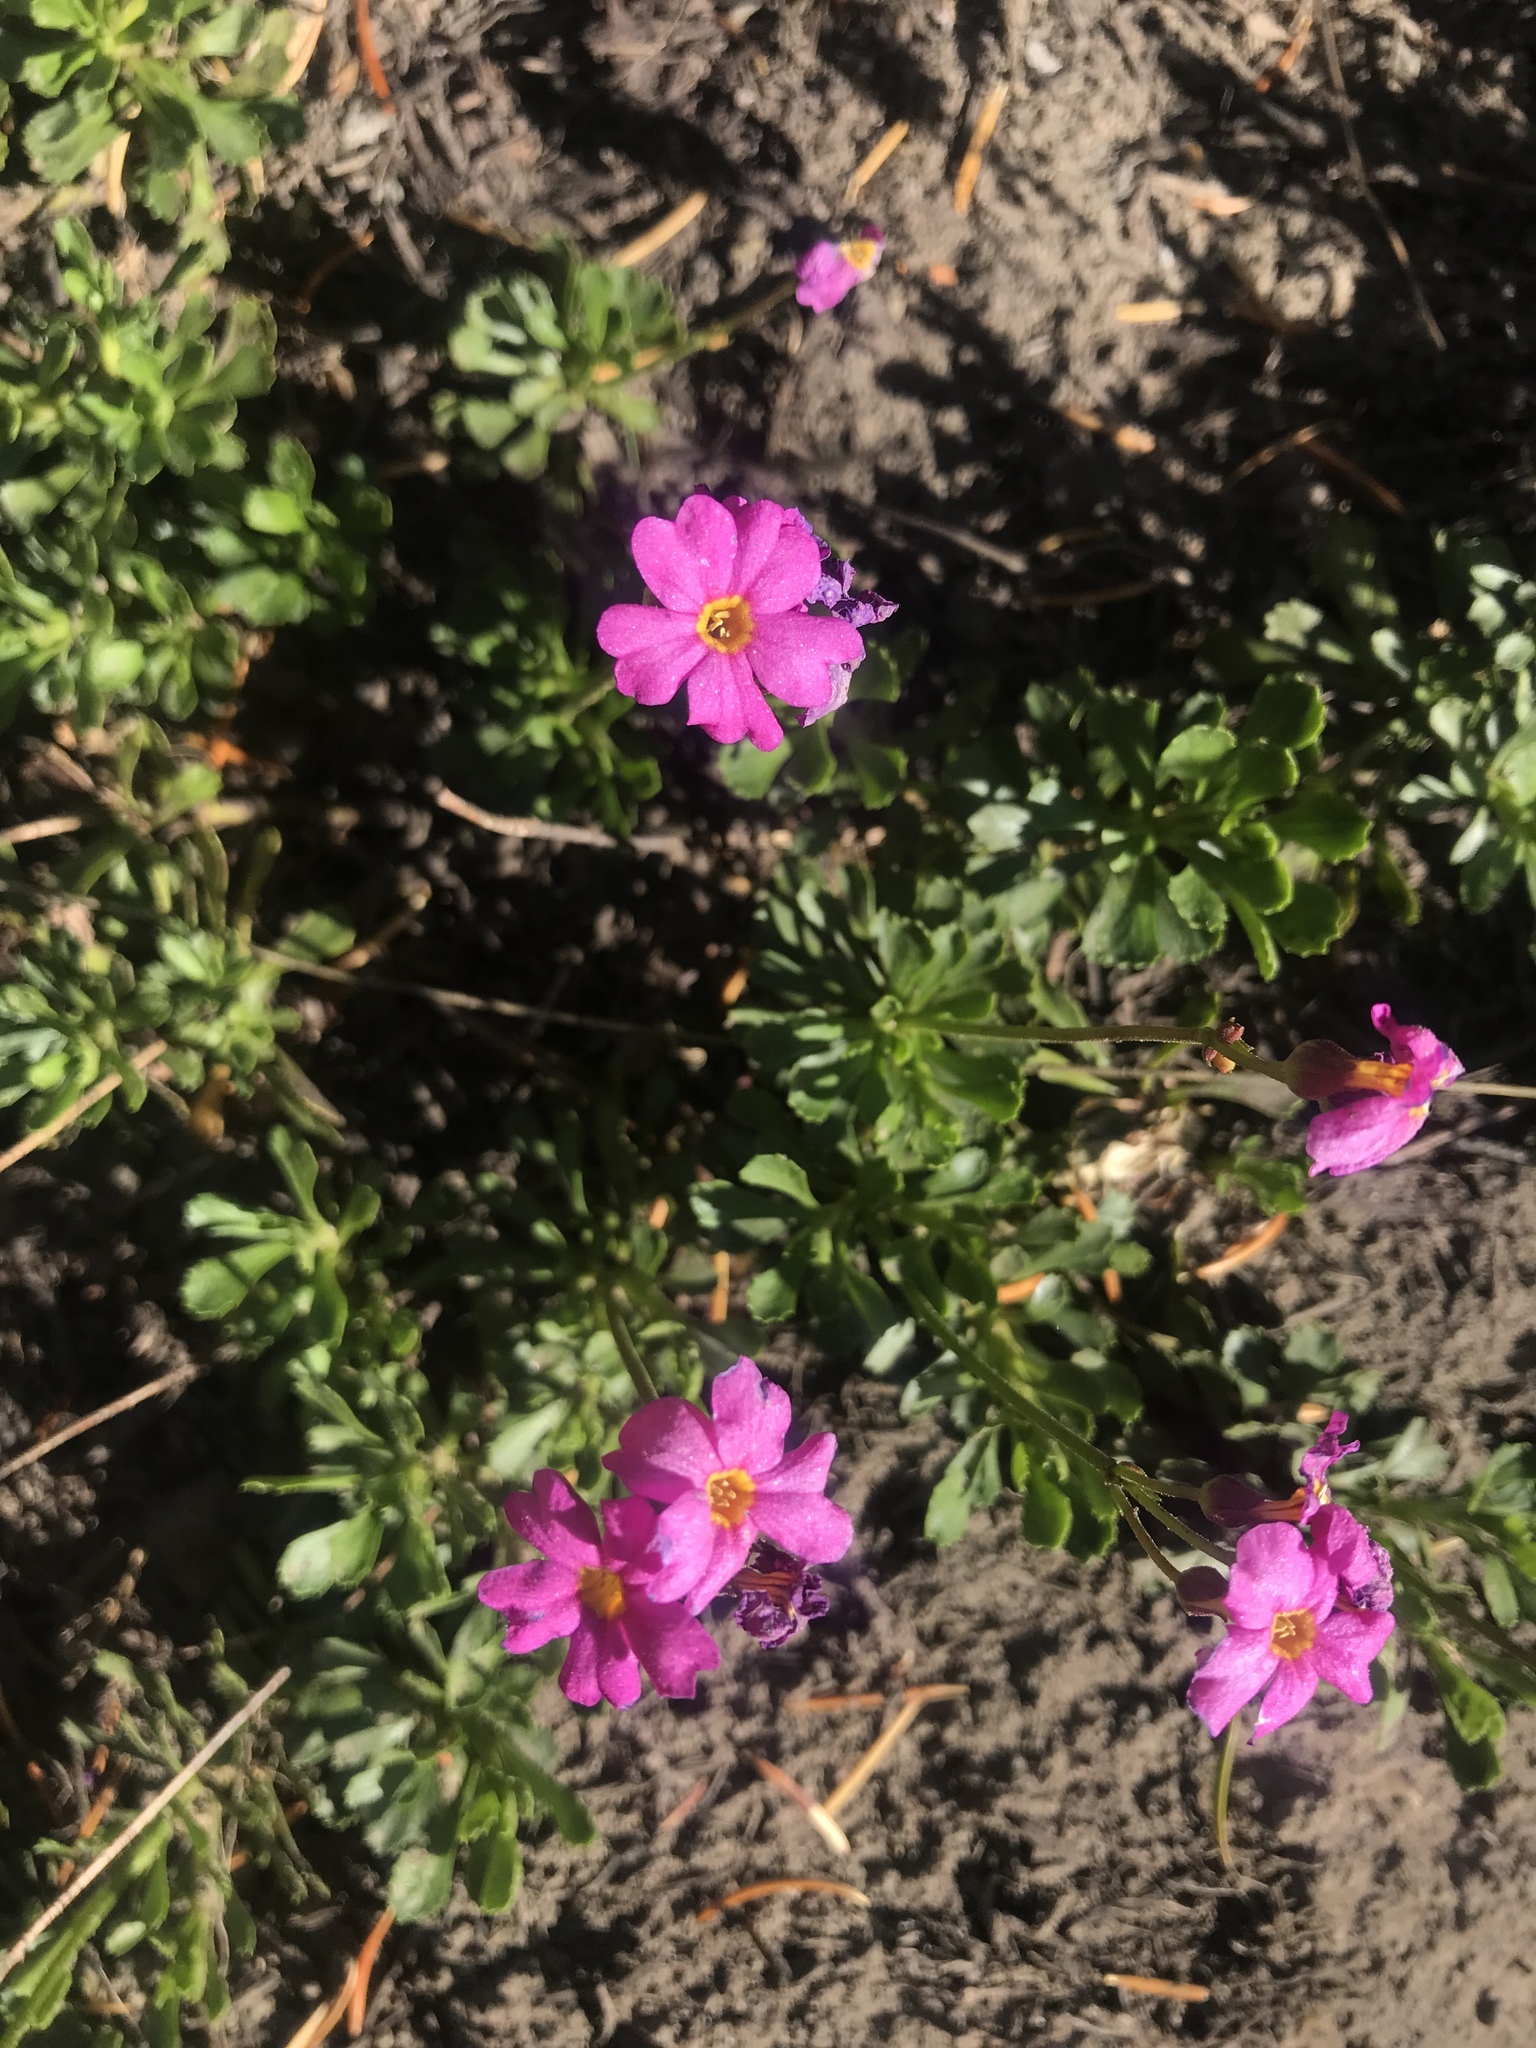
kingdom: Plantae
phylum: Tracheophyta
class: Magnoliopsida
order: Ericales
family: Primulaceae
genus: Primula
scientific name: Primula suffrutescens
